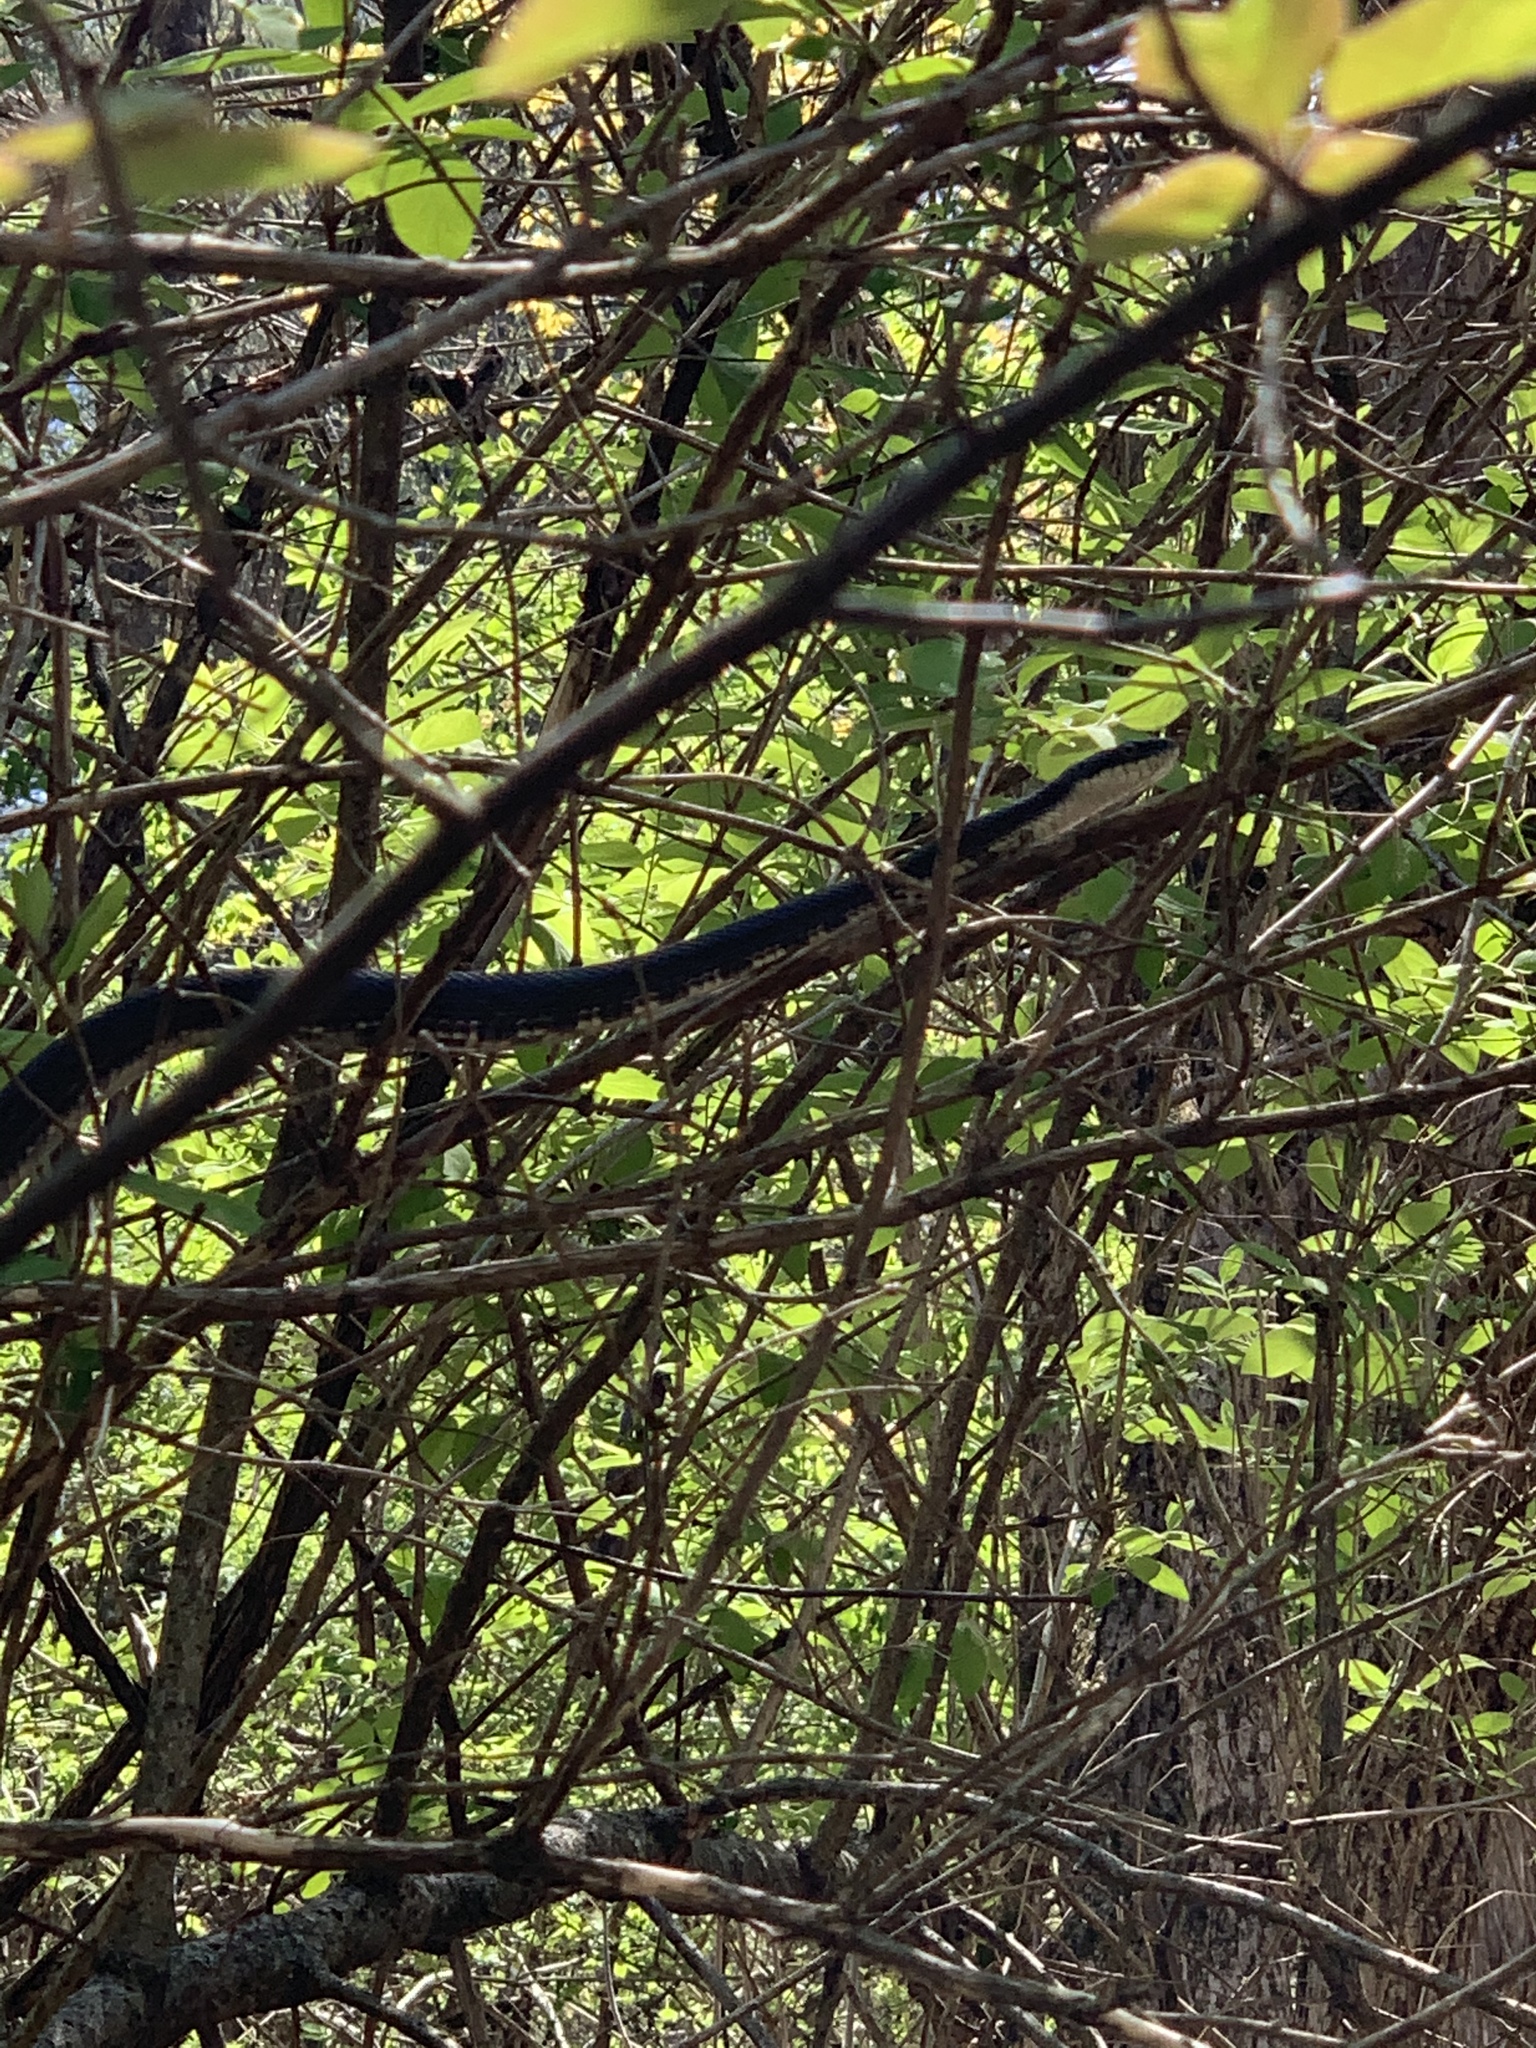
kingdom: Animalia
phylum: Chordata
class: Squamata
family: Colubridae
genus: Pantherophis
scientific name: Pantherophis alleghaniensis
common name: Eastern rat snake
